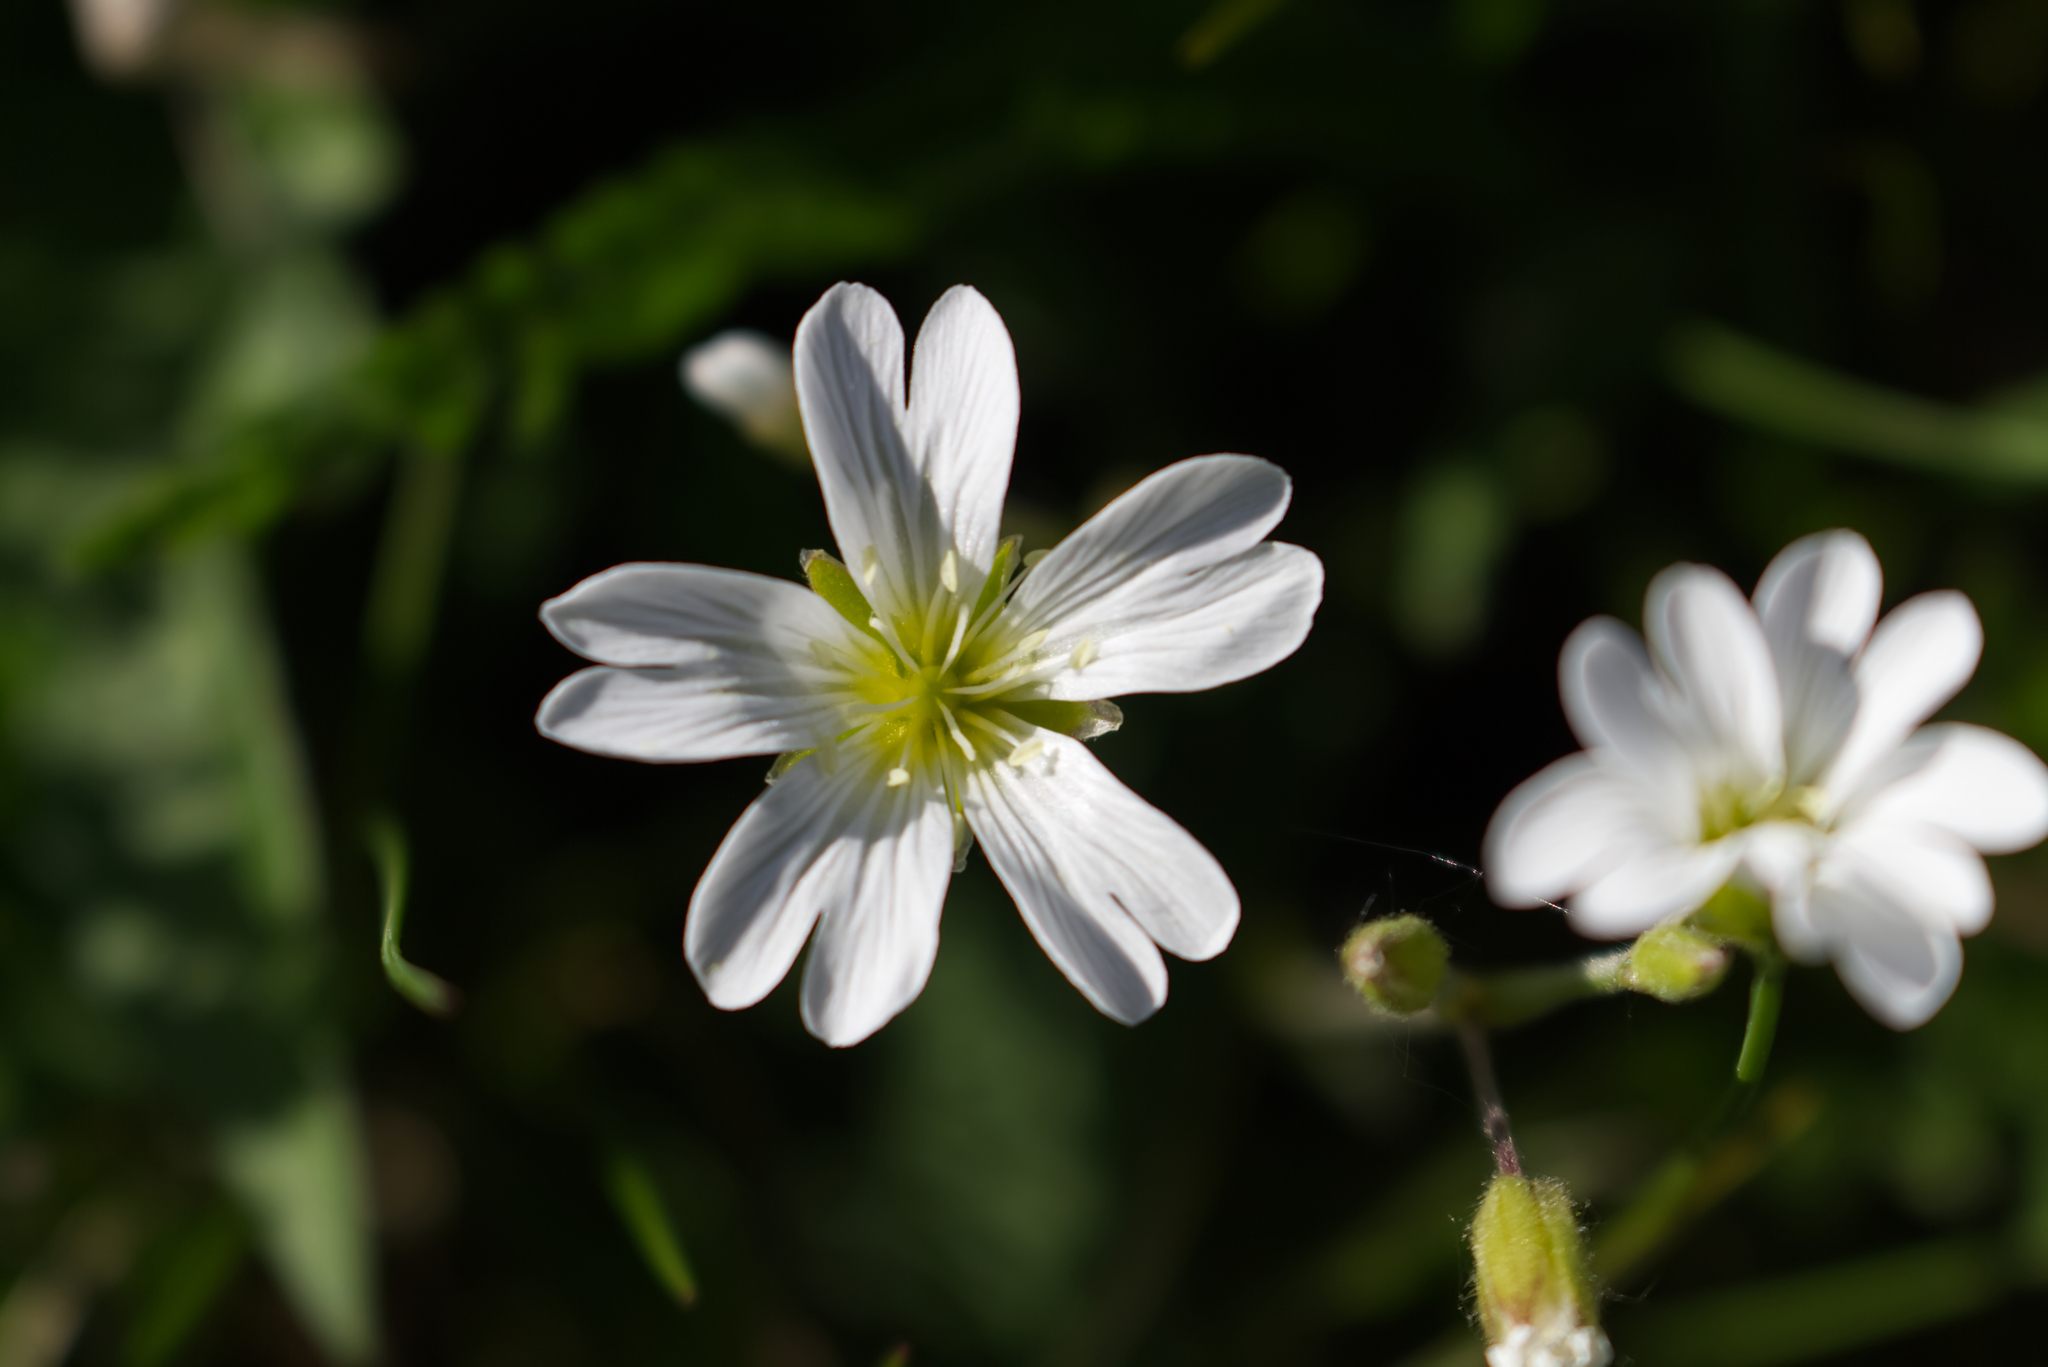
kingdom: Plantae
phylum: Tracheophyta
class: Magnoliopsida
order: Caryophyllales
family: Caryophyllaceae
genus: Cerastium
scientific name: Cerastium arvense
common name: Field mouse-ear
